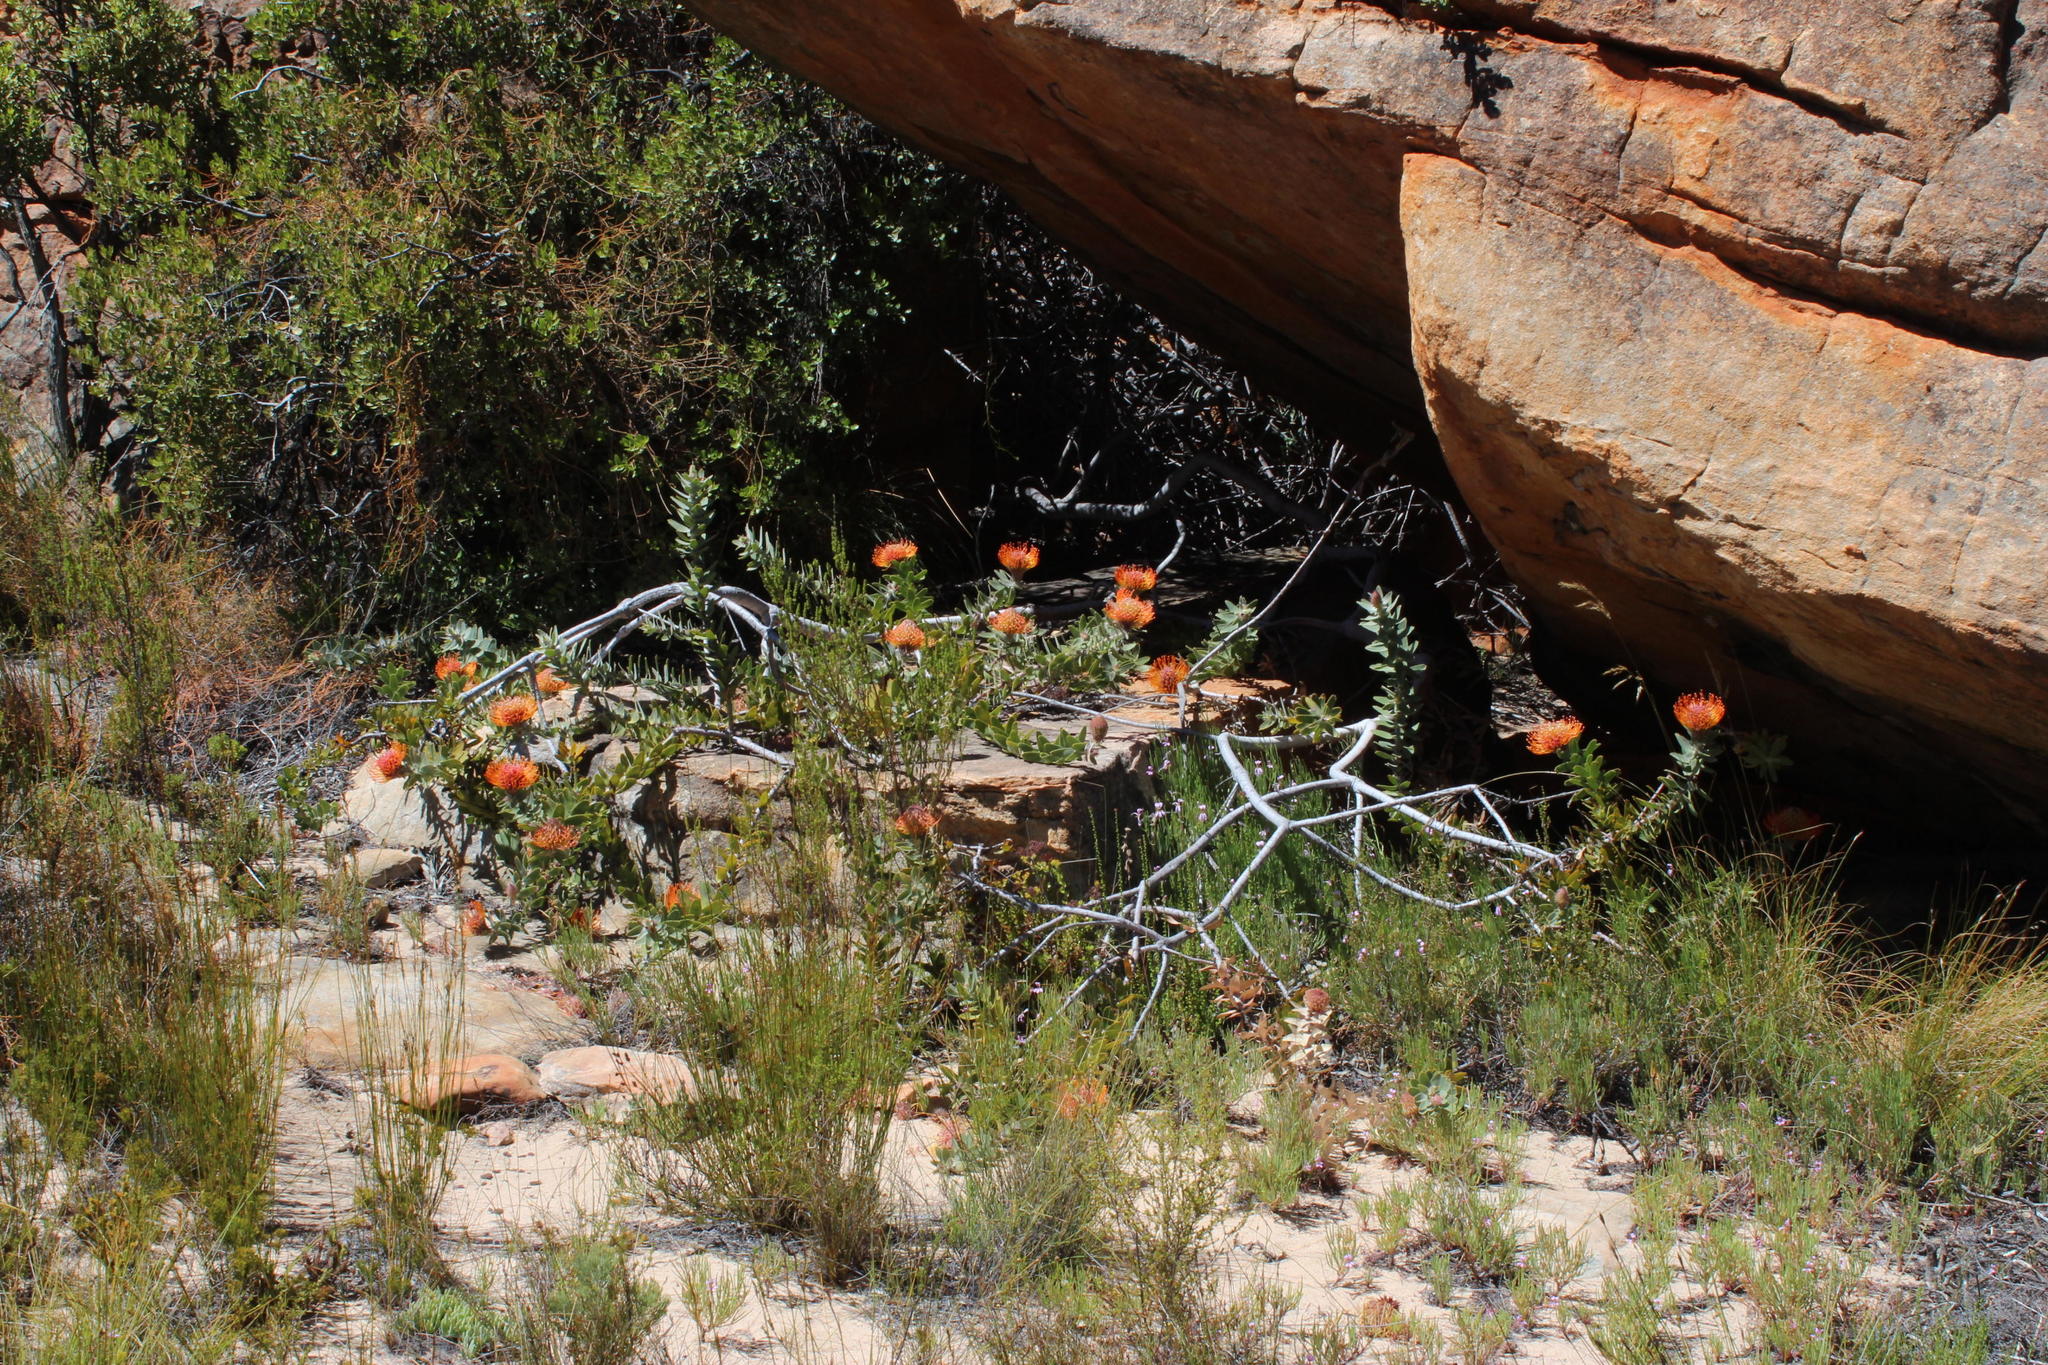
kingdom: Plantae
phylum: Tracheophyta
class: Magnoliopsida
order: Proteales
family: Proteaceae
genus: Leucospermum
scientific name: Leucospermum vestitum
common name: Silky-hair pincushion
